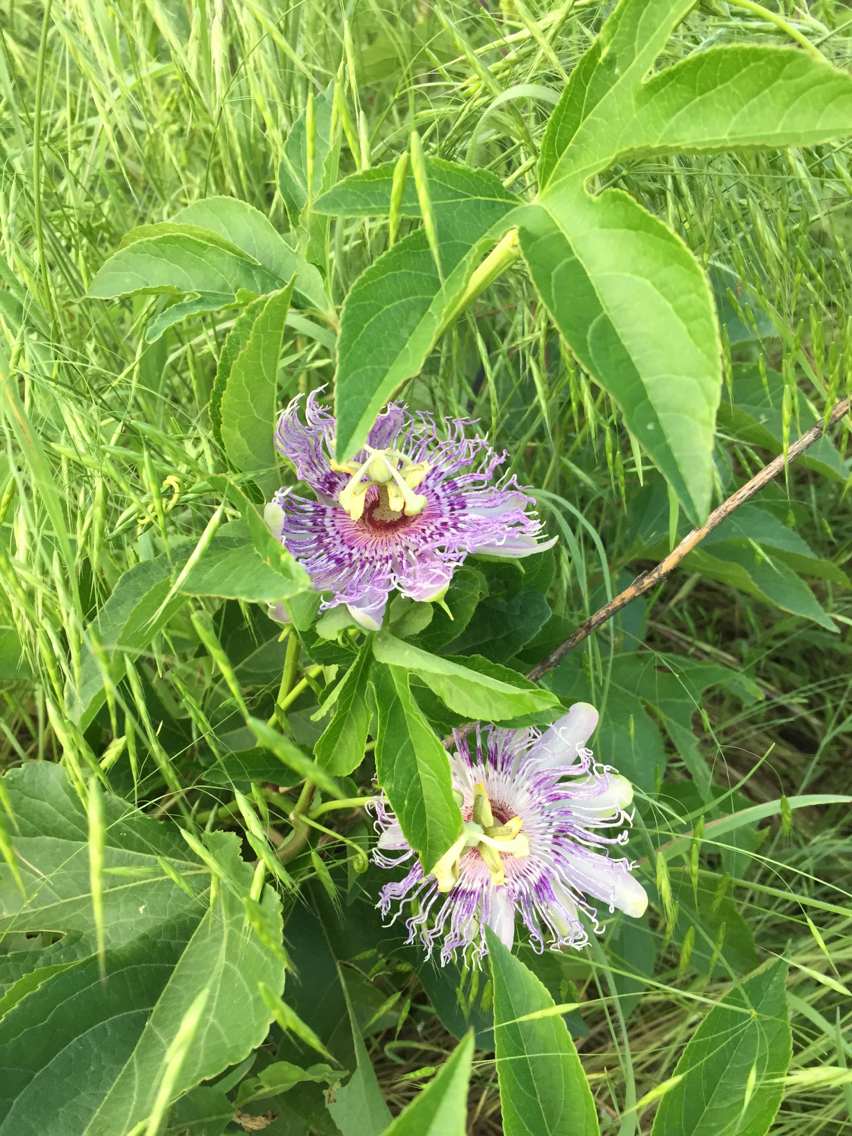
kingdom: Plantae
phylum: Tracheophyta
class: Magnoliopsida
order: Malpighiales
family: Passifloraceae
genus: Passiflora
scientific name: Passiflora incarnata
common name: Apricot-vine
